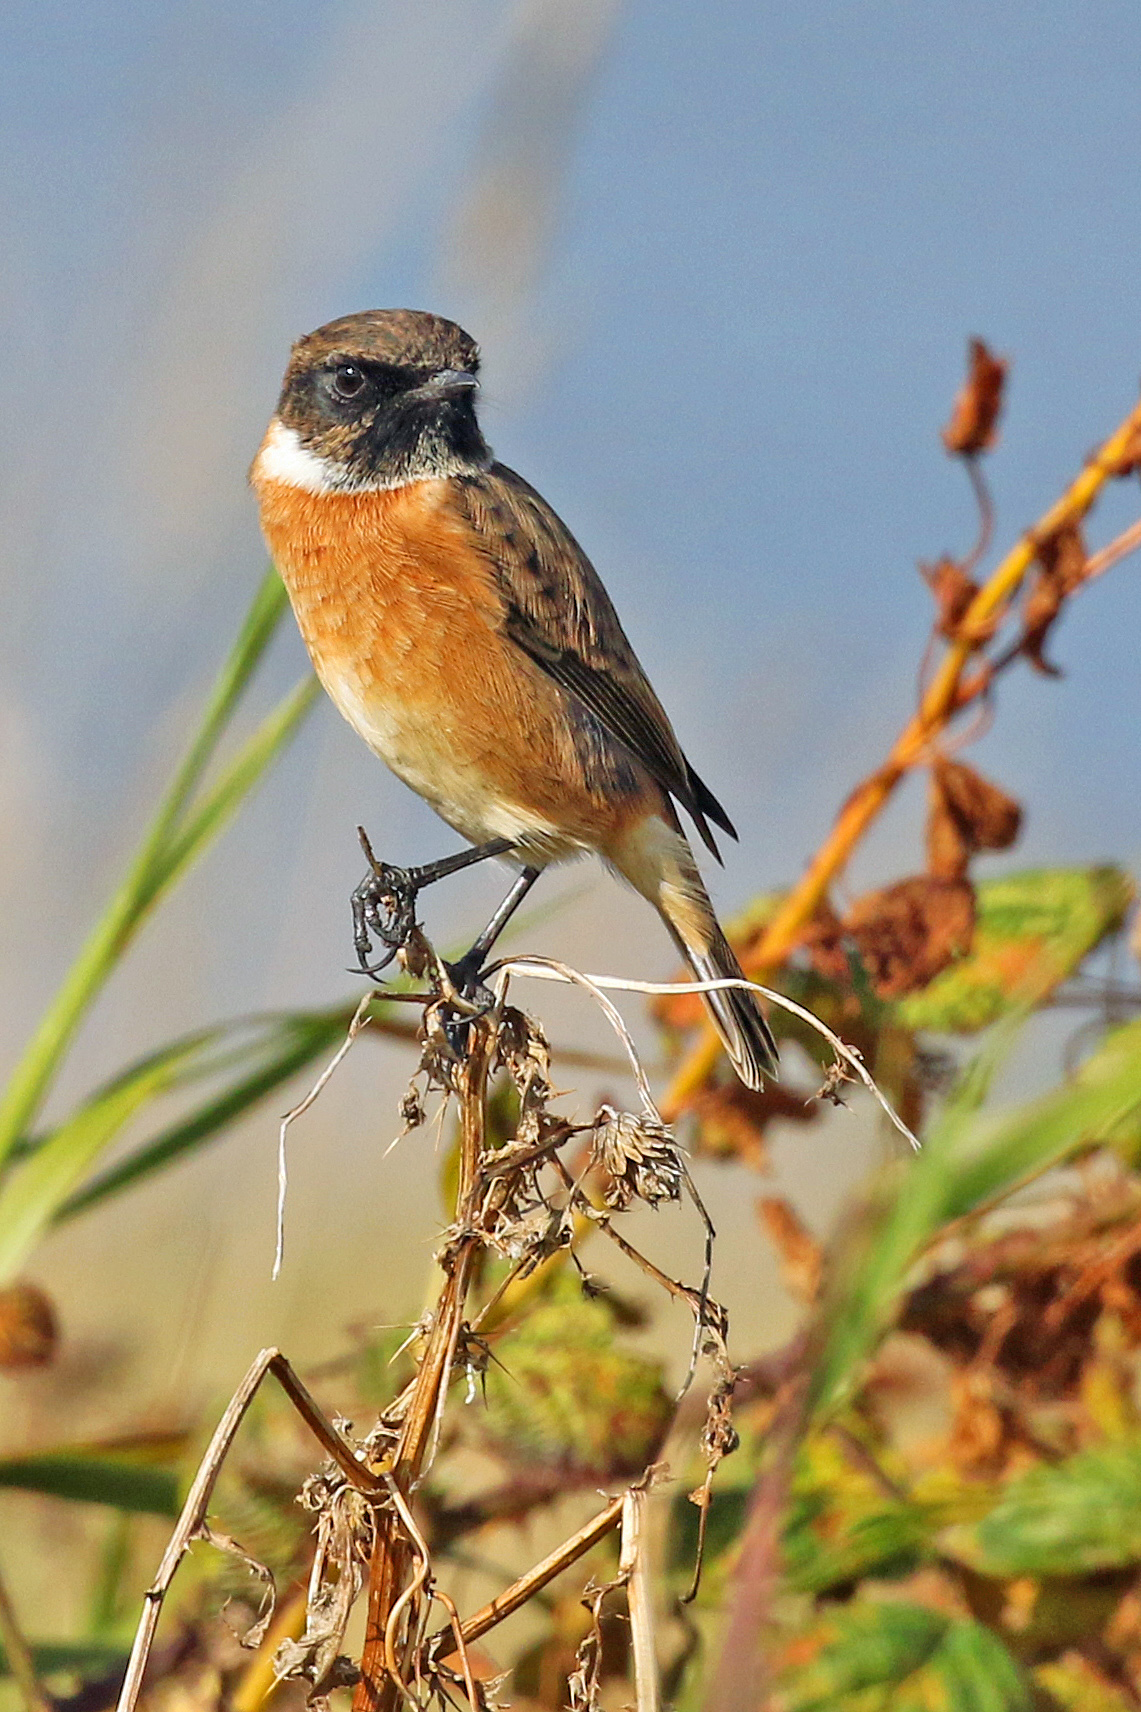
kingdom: Animalia
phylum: Chordata
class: Aves
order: Passeriformes
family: Muscicapidae
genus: Saxicola
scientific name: Saxicola rubicola
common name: European stonechat
